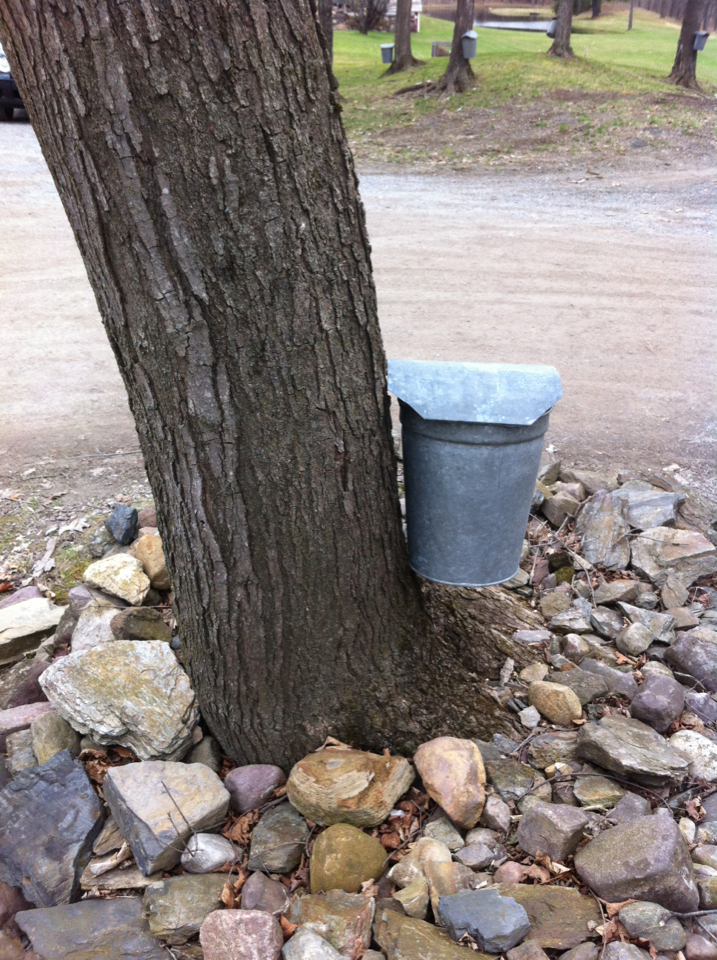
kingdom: Plantae
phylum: Tracheophyta
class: Magnoliopsida
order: Sapindales
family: Sapindaceae
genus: Acer
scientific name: Acer saccharum
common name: Sugar maple
